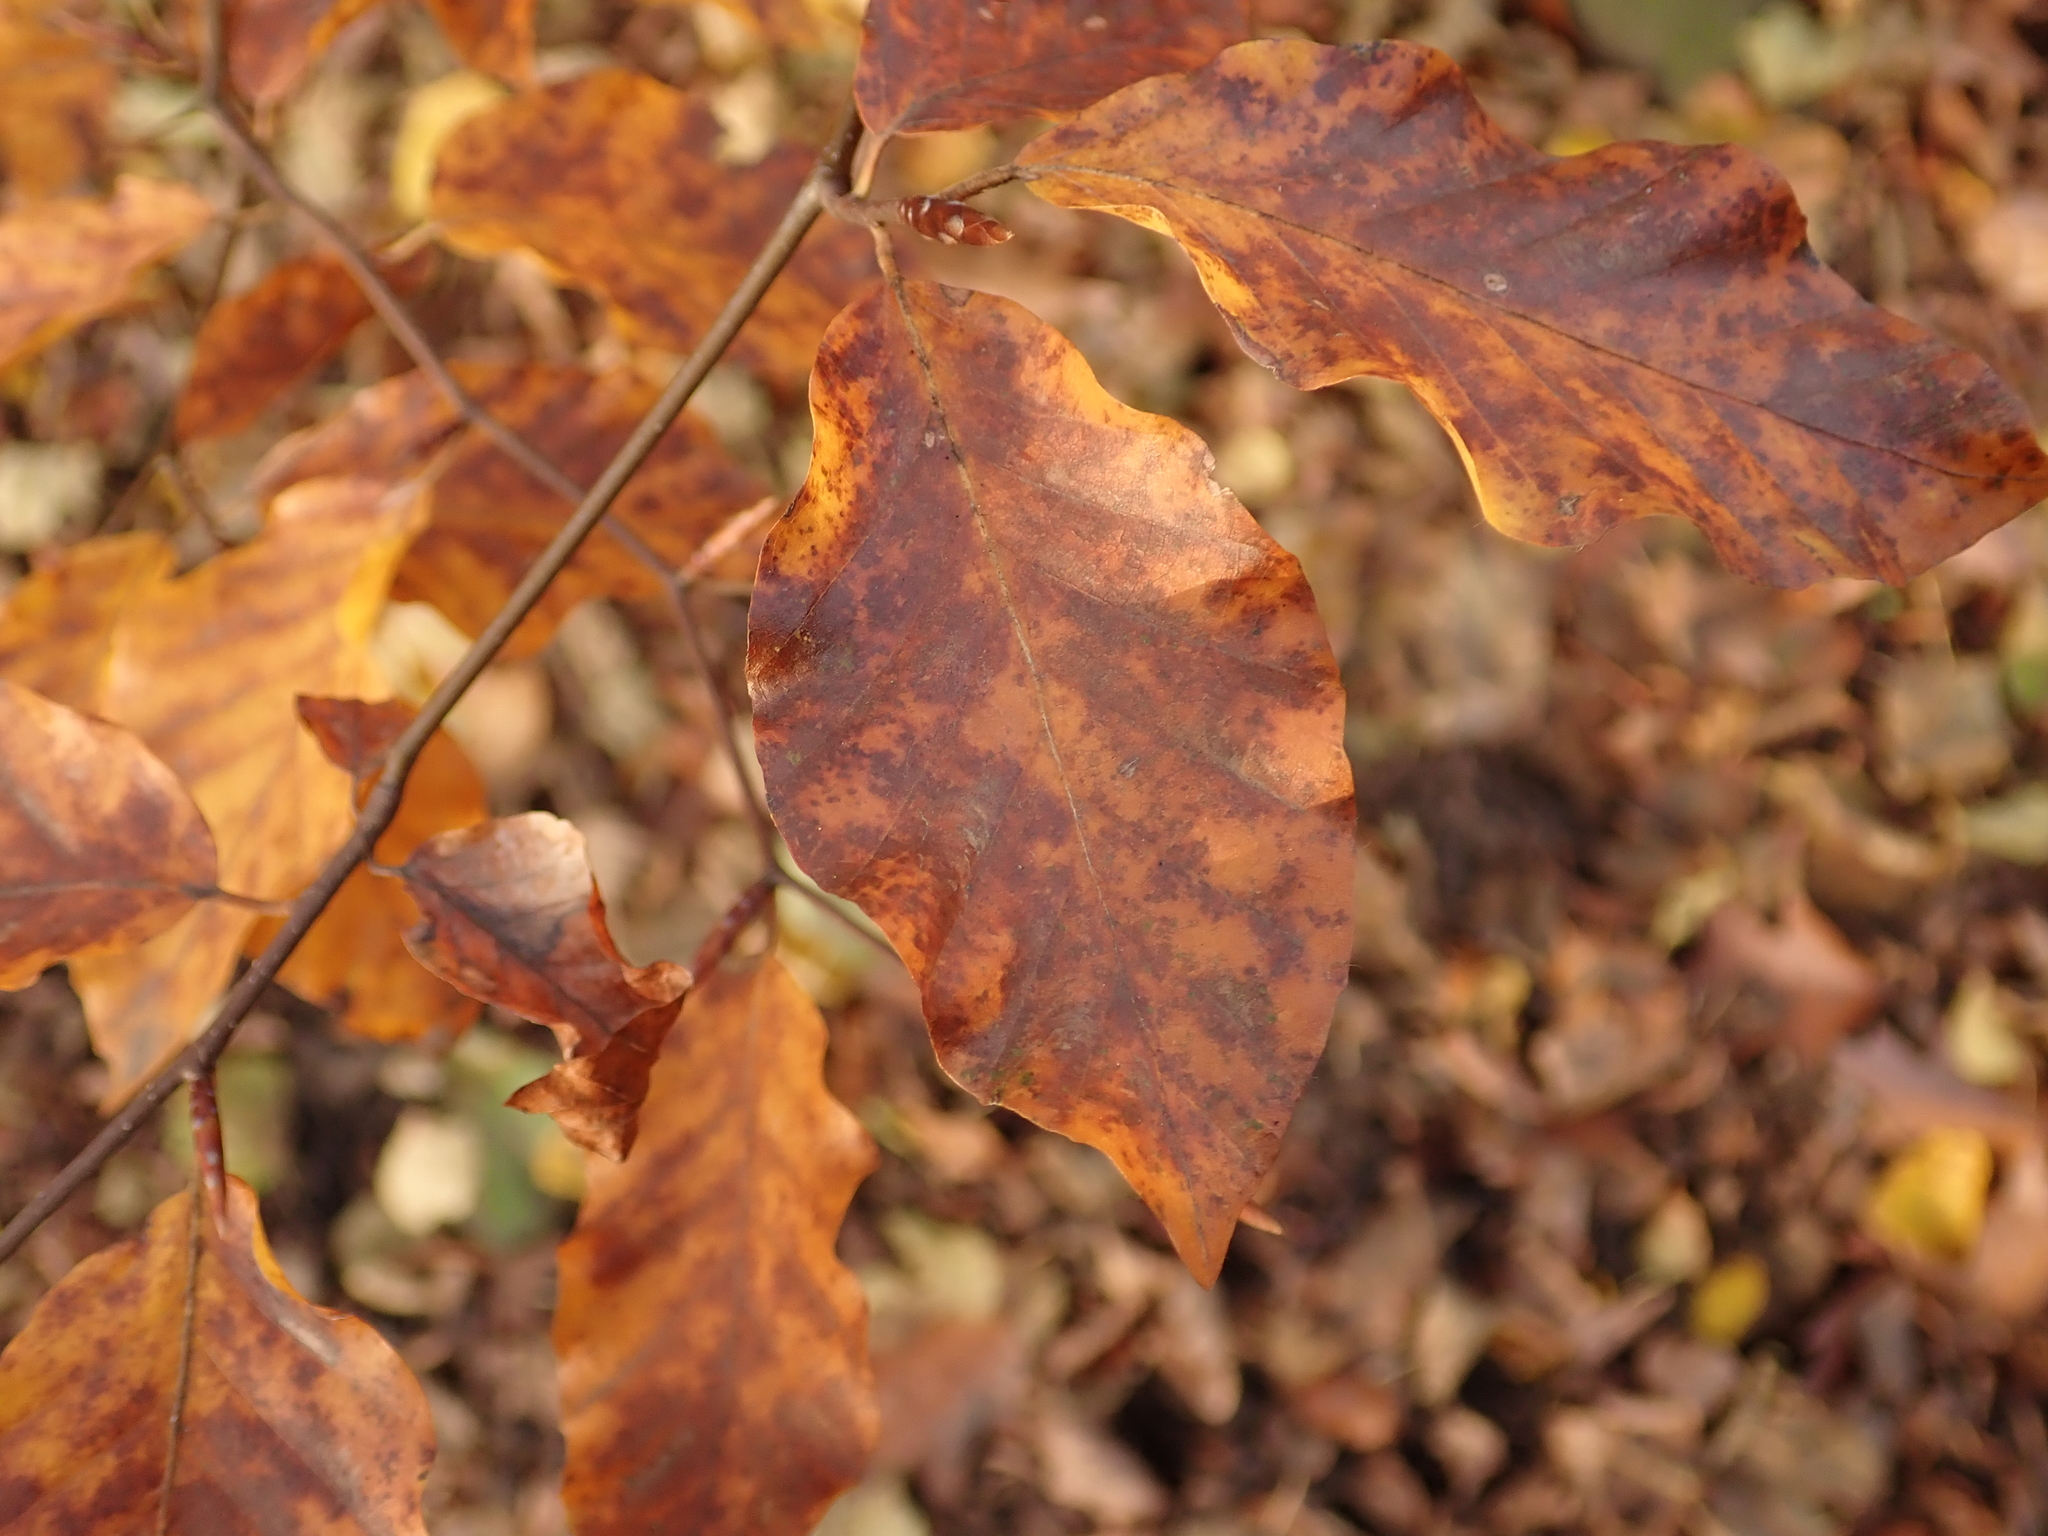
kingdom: Plantae
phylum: Tracheophyta
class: Magnoliopsida
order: Fagales
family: Fagaceae
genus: Fagus
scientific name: Fagus sylvatica
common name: Beech
